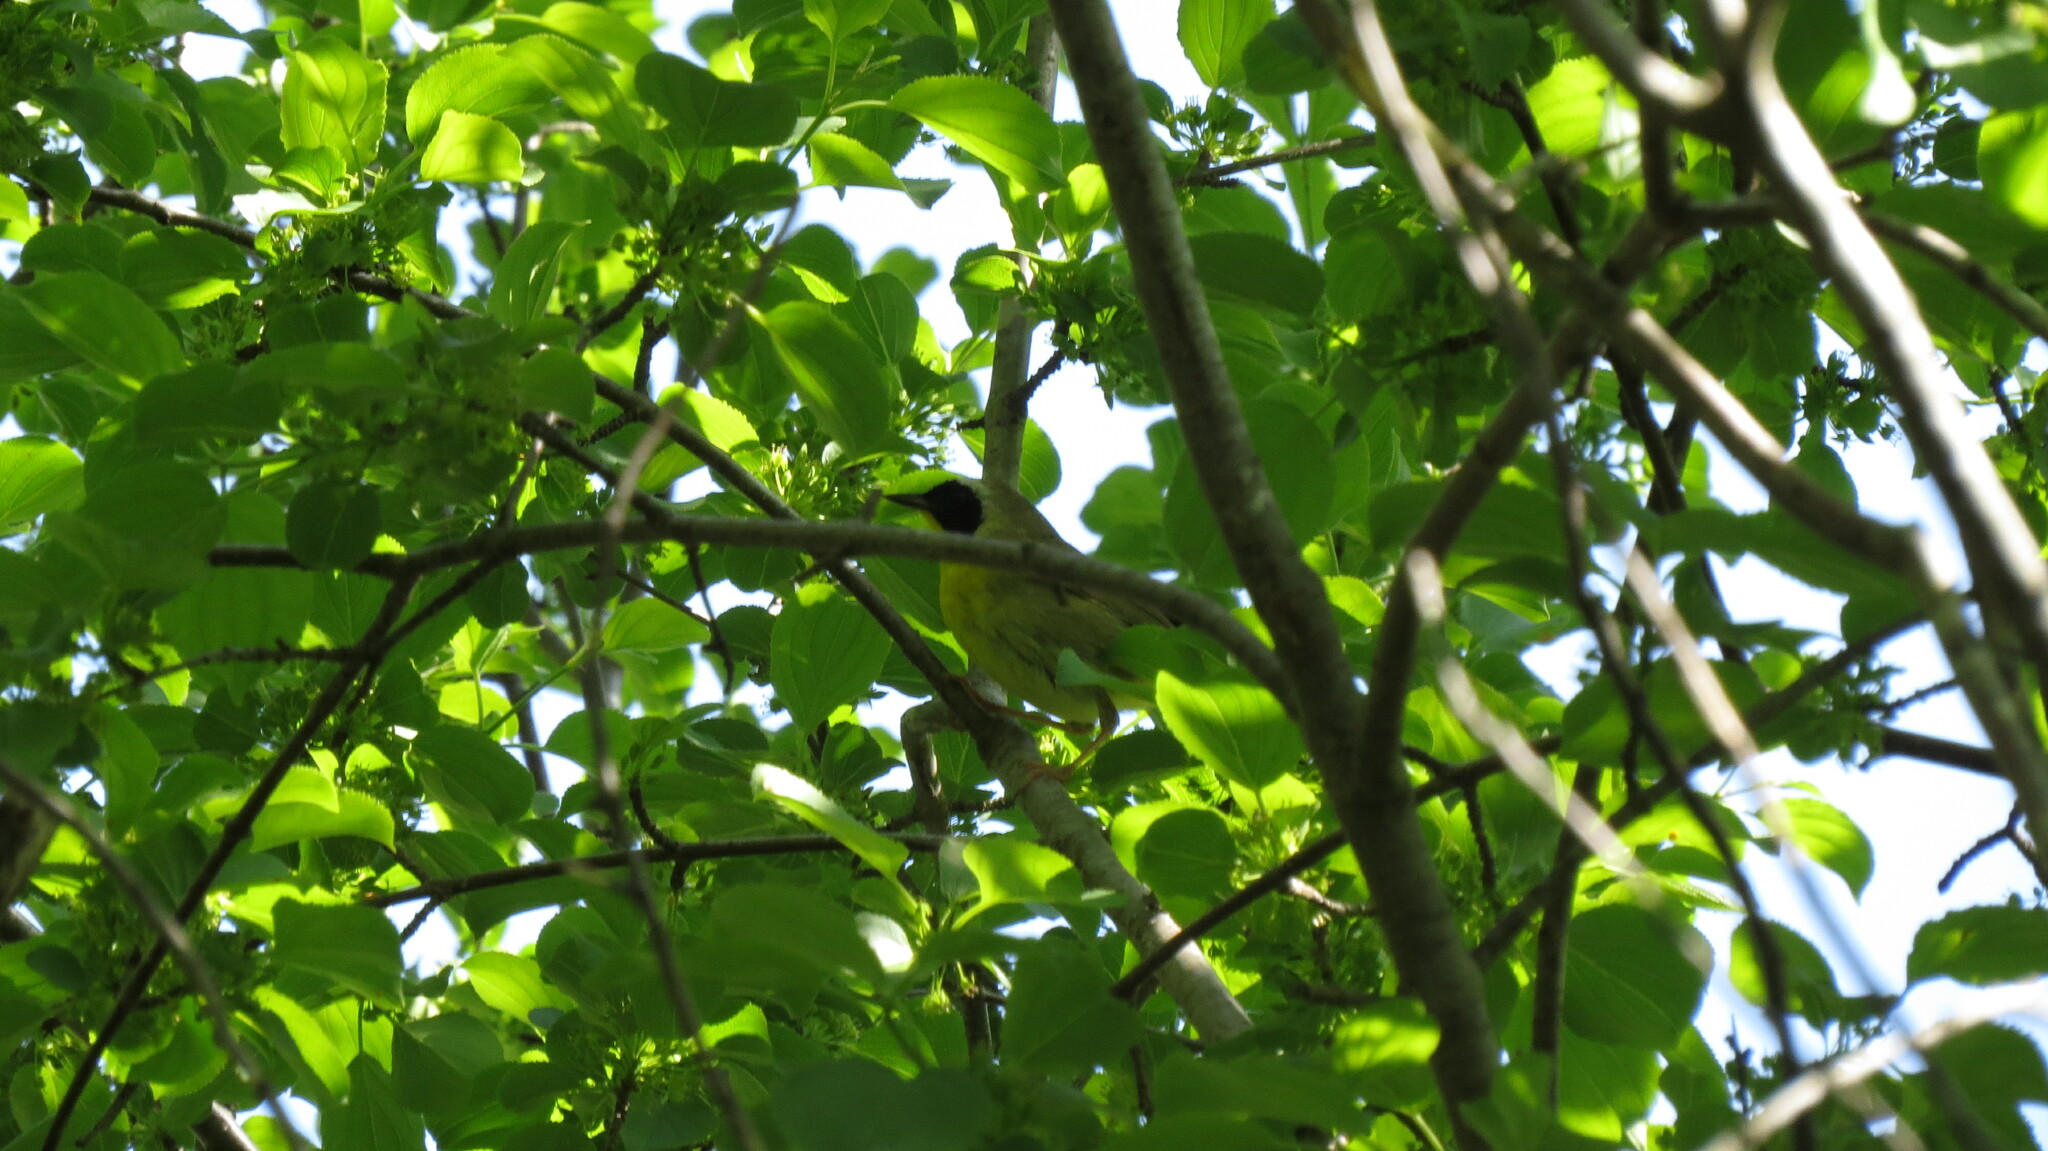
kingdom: Animalia
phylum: Chordata
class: Aves
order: Passeriformes
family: Parulidae
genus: Geothlypis
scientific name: Geothlypis trichas
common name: Common yellowthroat
